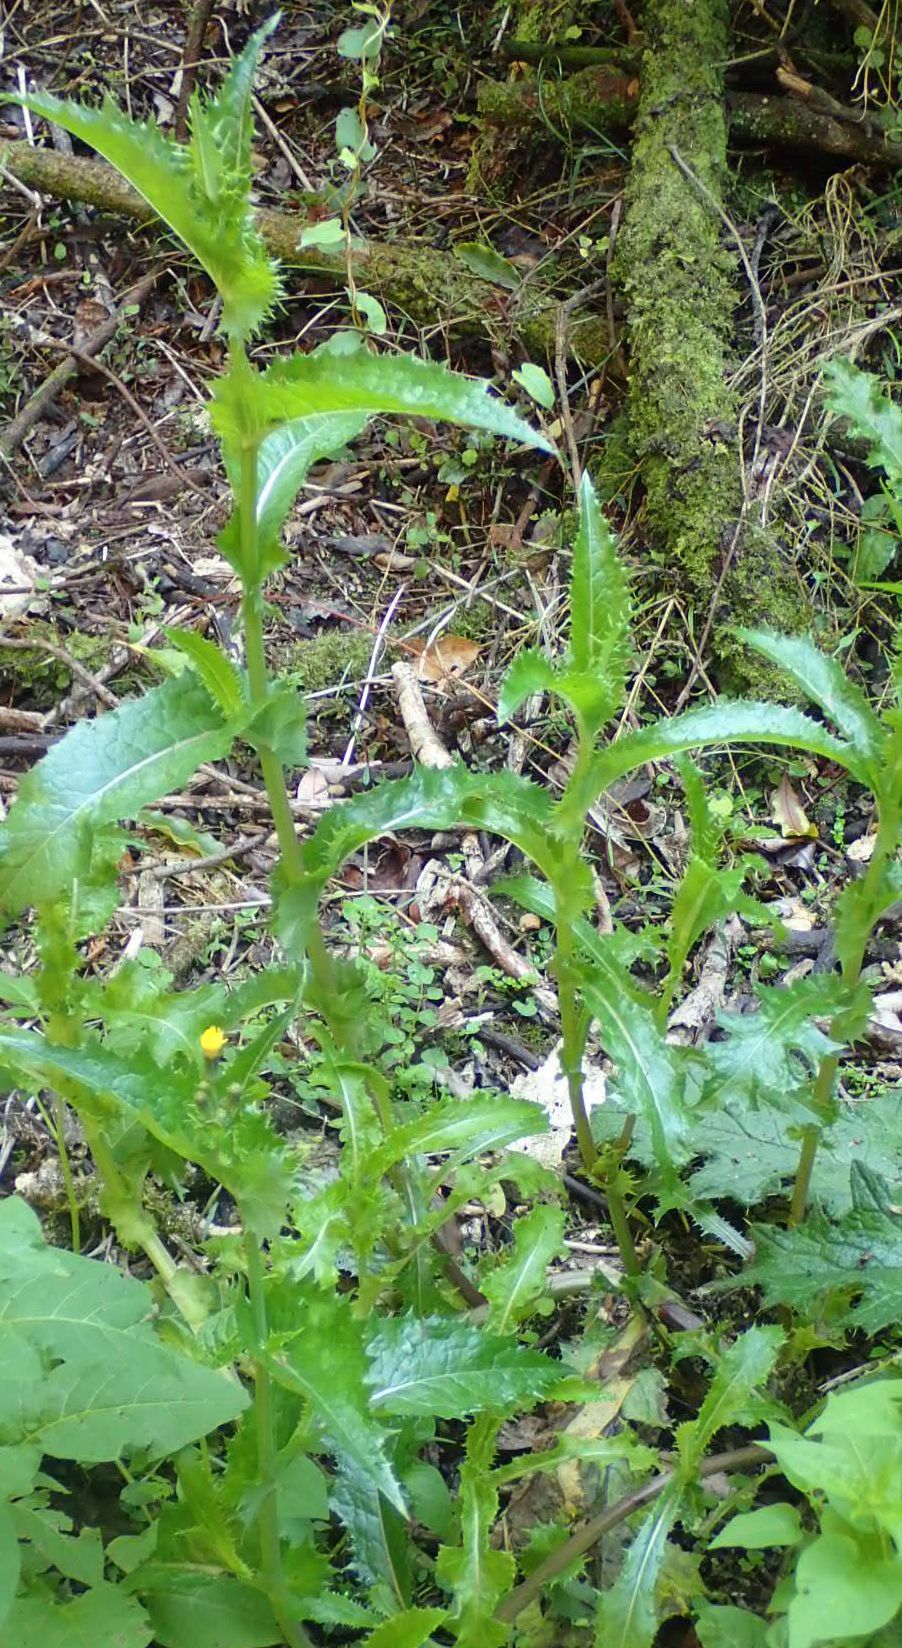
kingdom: Plantae
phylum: Tracheophyta
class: Magnoliopsida
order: Asterales
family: Asteraceae
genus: Sonchus
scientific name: Sonchus asper
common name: Prickly sow-thistle
